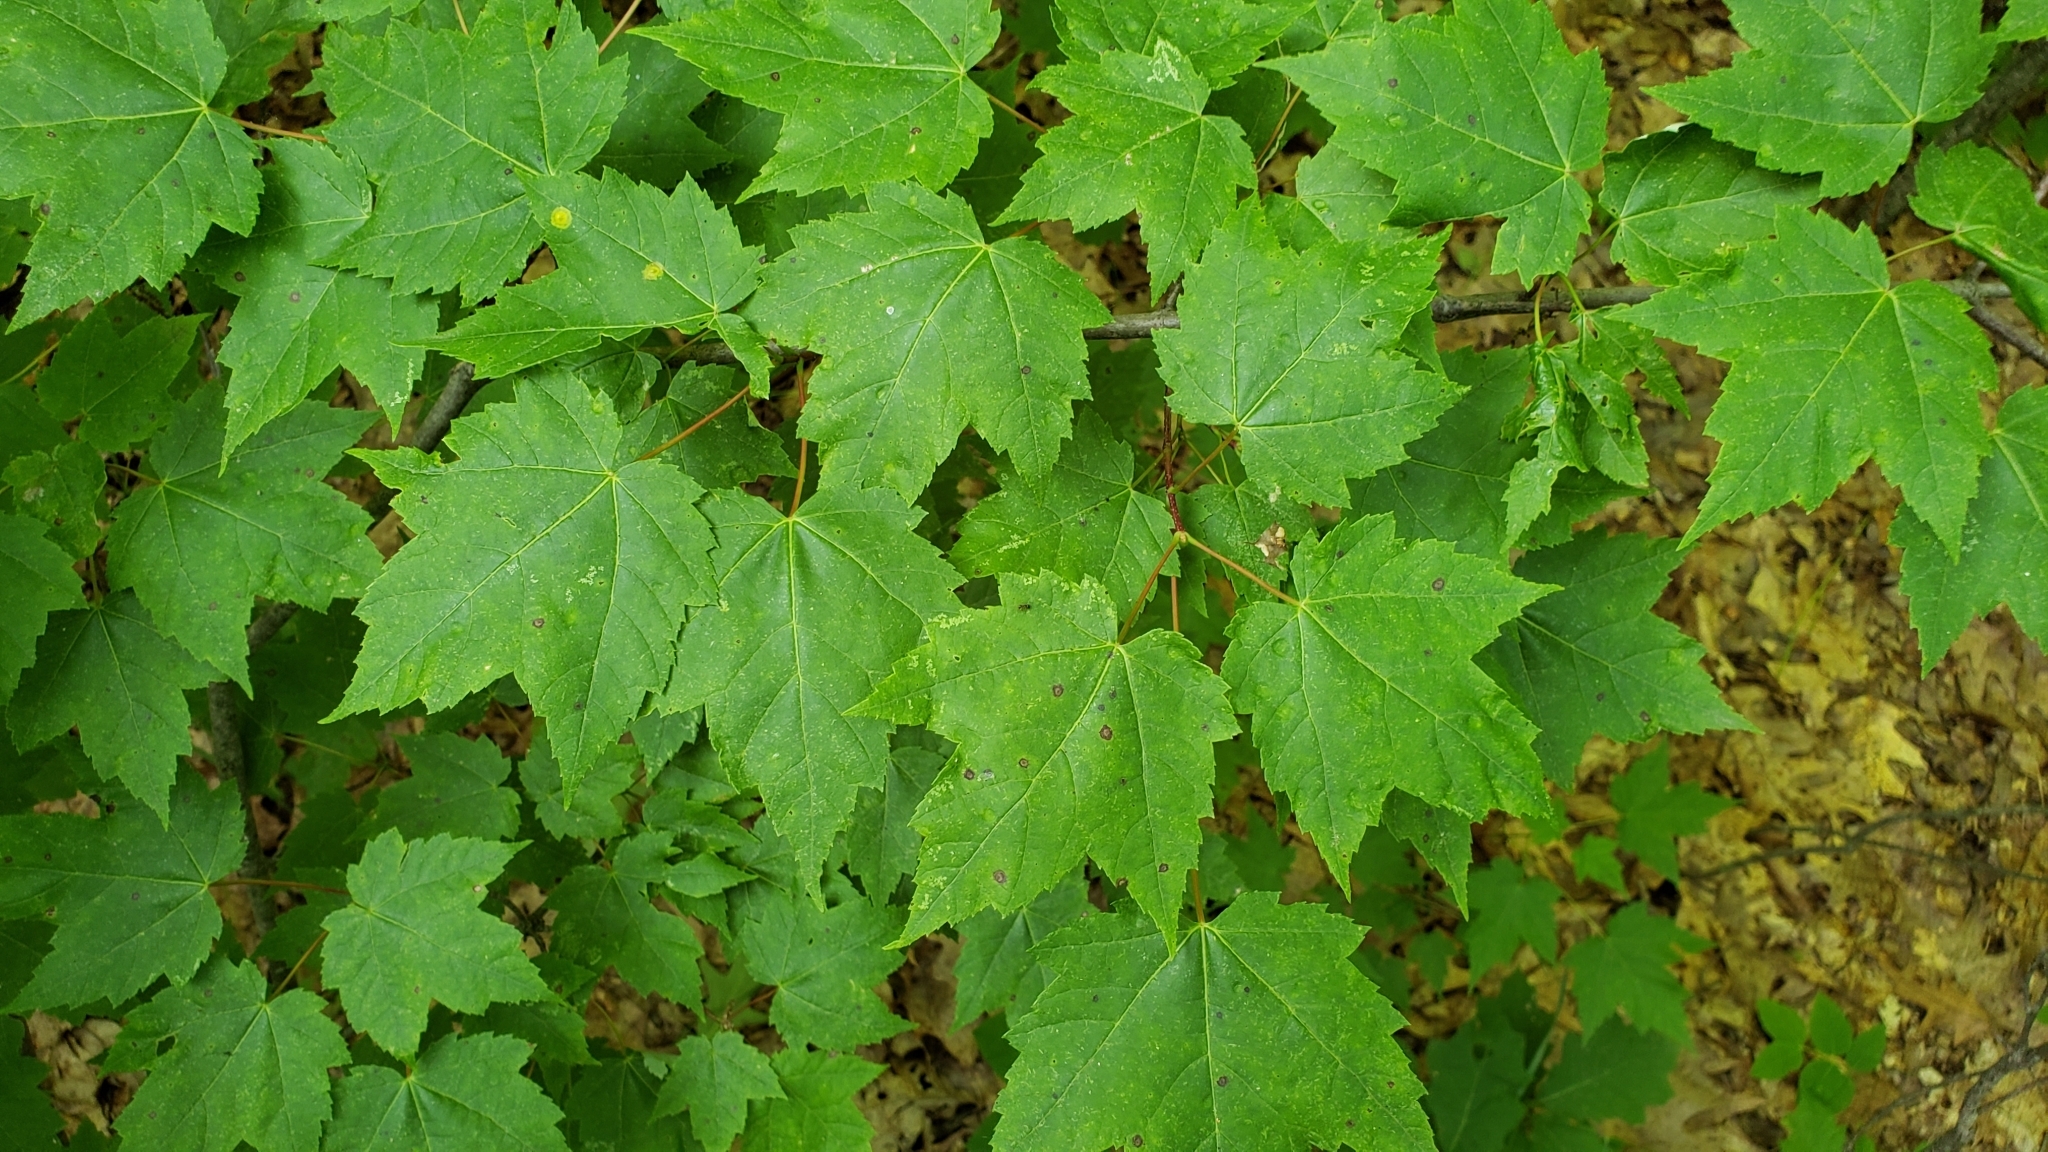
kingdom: Plantae
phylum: Tracheophyta
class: Magnoliopsida
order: Sapindales
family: Sapindaceae
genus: Acer
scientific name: Acer rubrum
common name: Red maple
